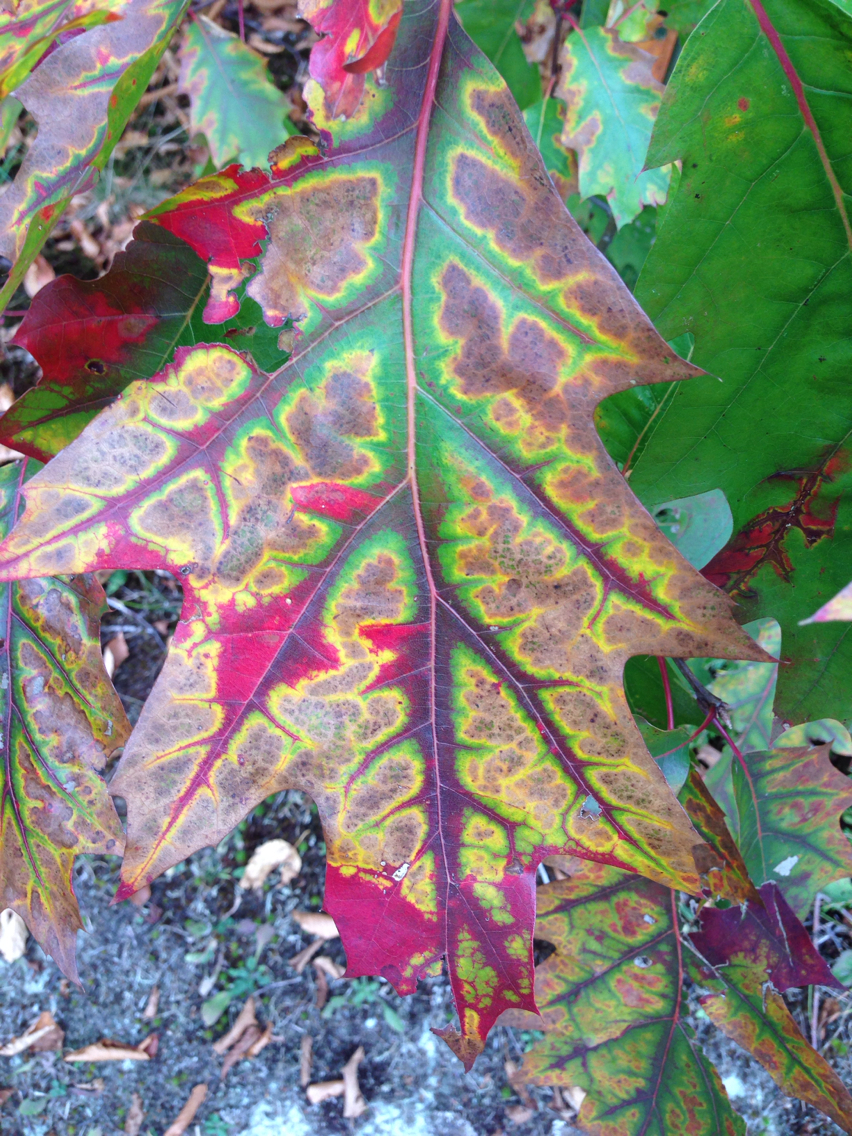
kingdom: Plantae
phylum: Tracheophyta
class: Magnoliopsida
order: Fagales
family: Fagaceae
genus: Quercus
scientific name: Quercus rubra
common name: Red oak
